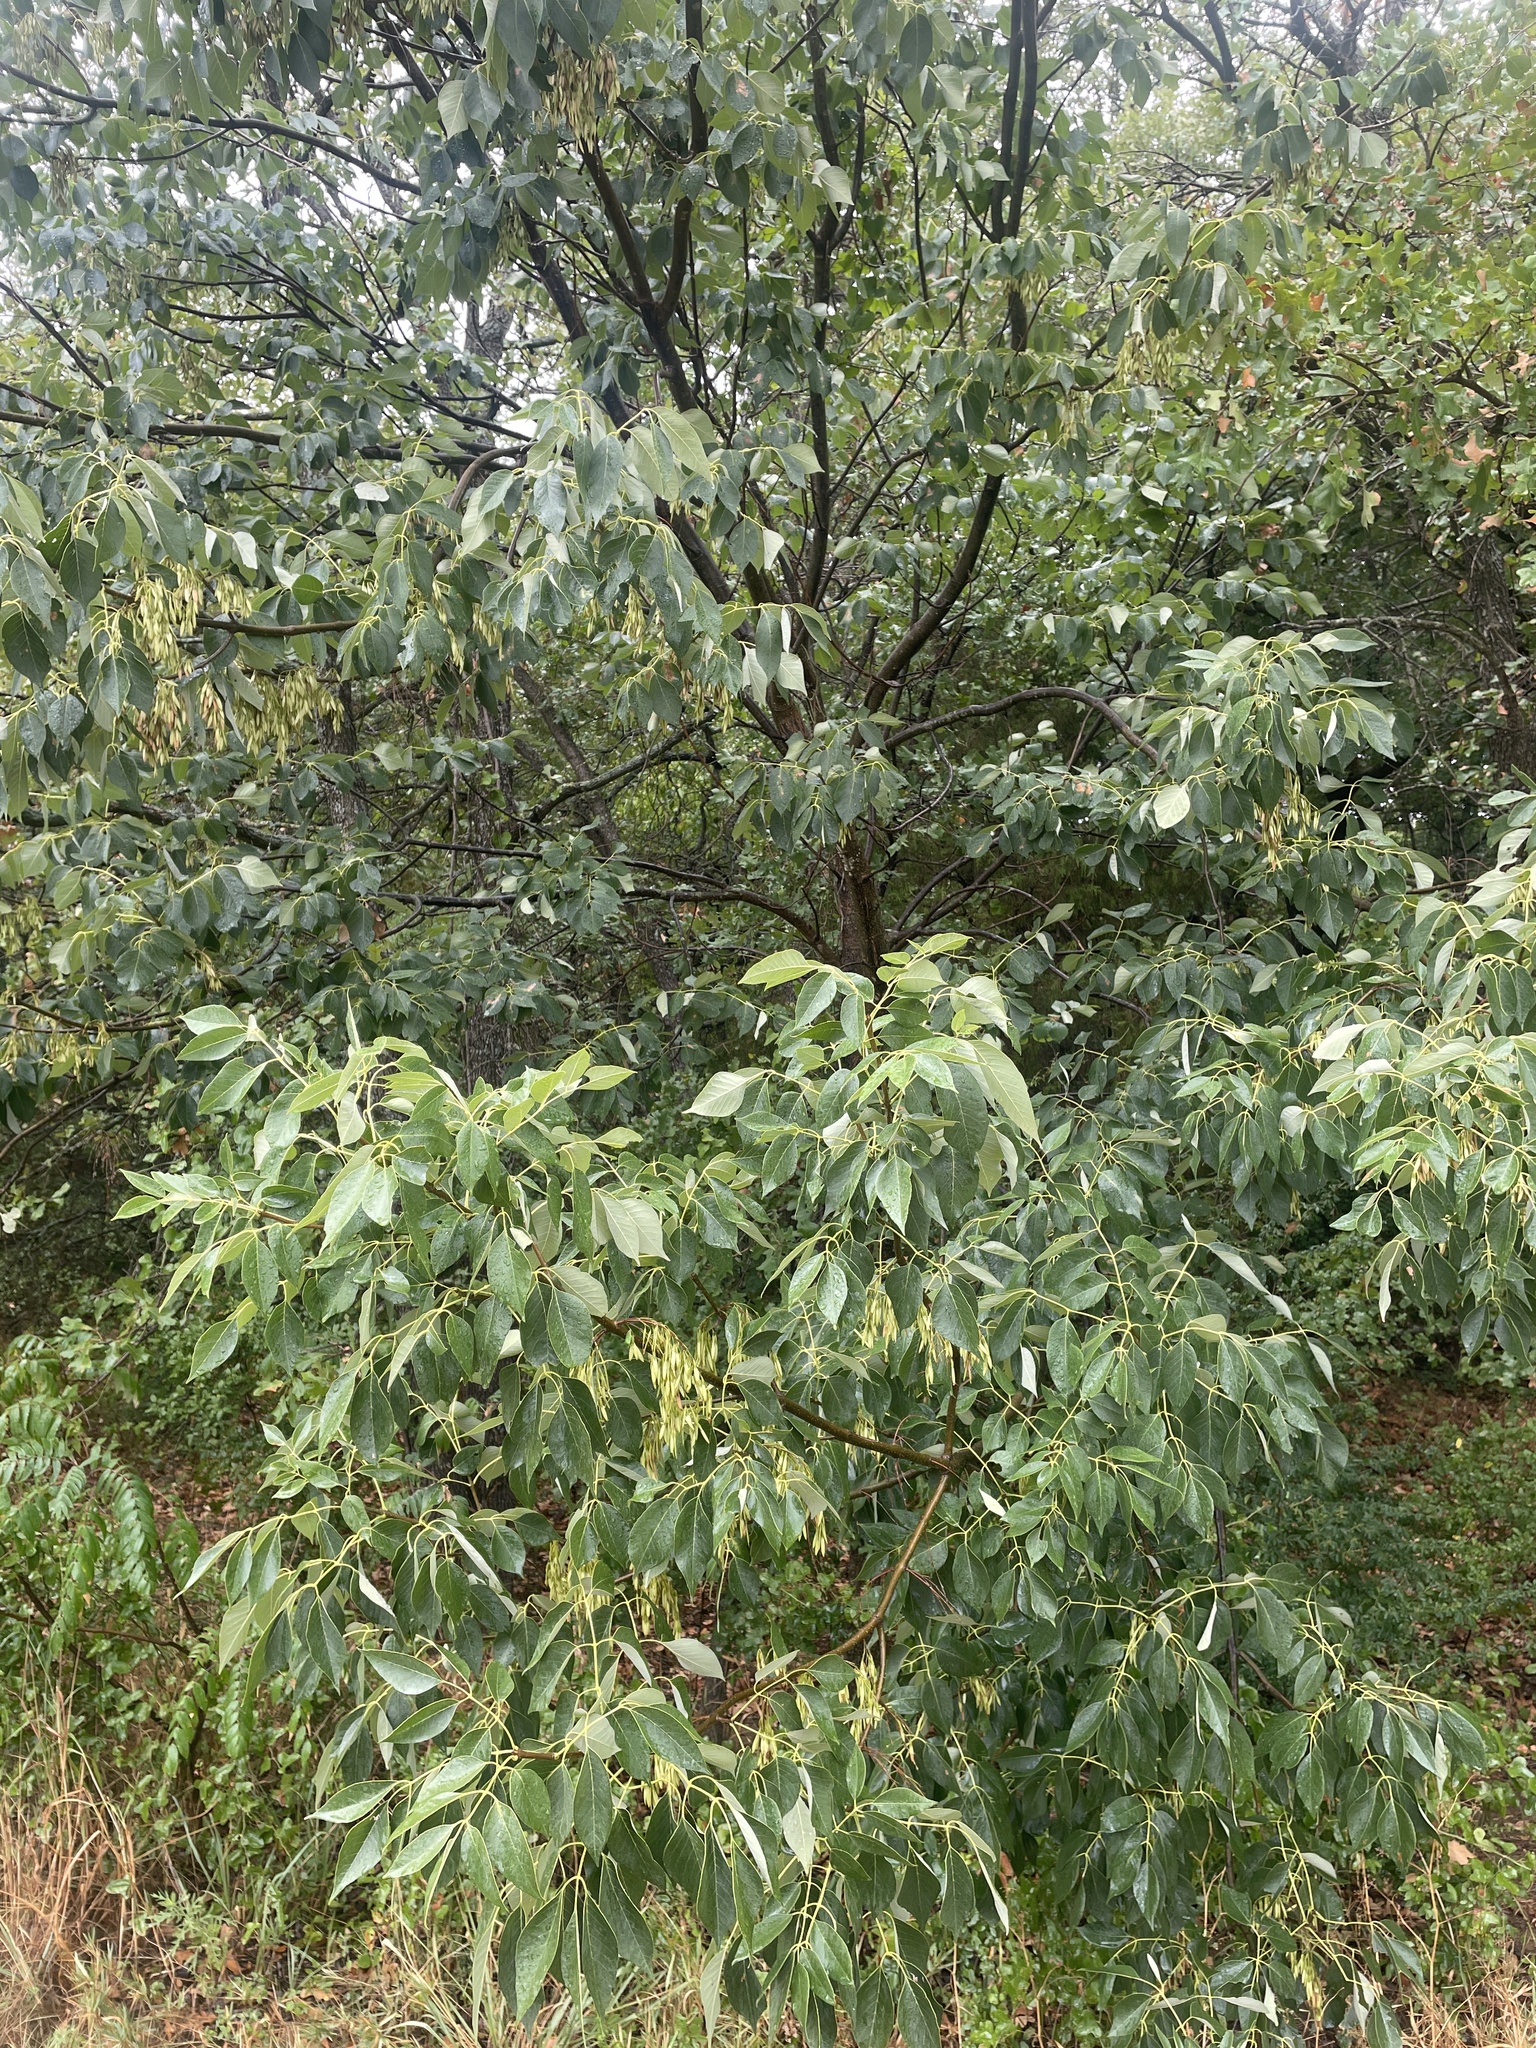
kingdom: Plantae
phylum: Tracheophyta
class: Magnoliopsida
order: Lamiales
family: Oleaceae
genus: Fraxinus
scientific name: Fraxinus albicans
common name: Texas ash
